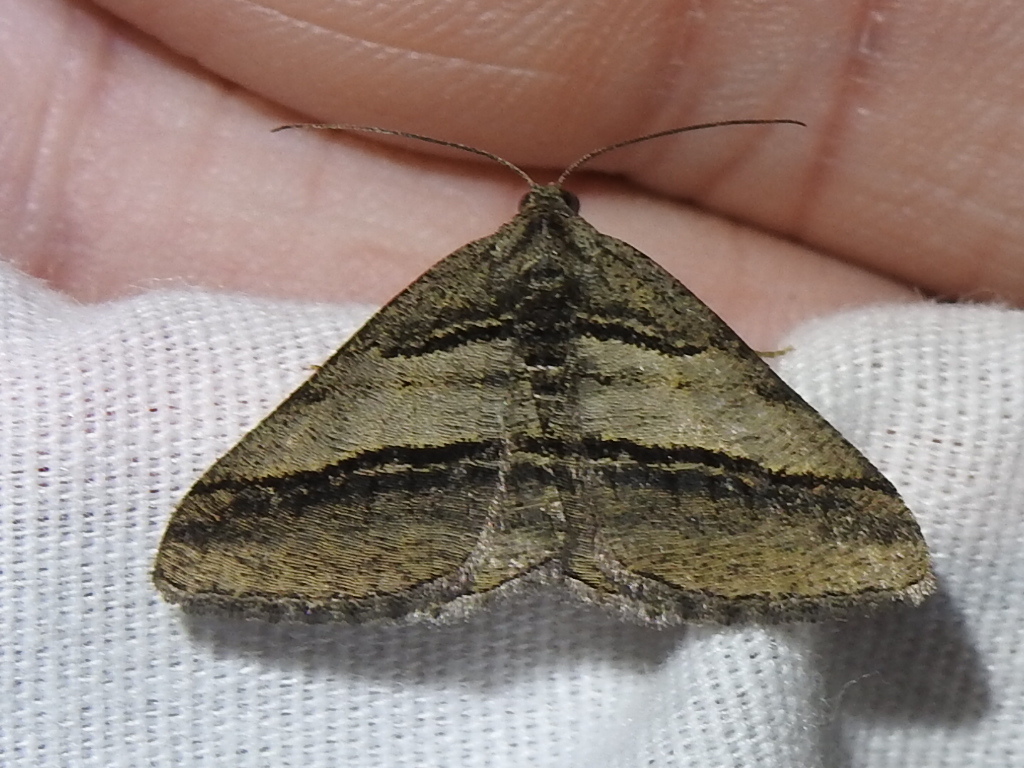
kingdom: Animalia
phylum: Arthropoda
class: Insecta
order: Lepidoptera
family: Geometridae
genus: Digrammia
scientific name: Digrammia atrofasciata
